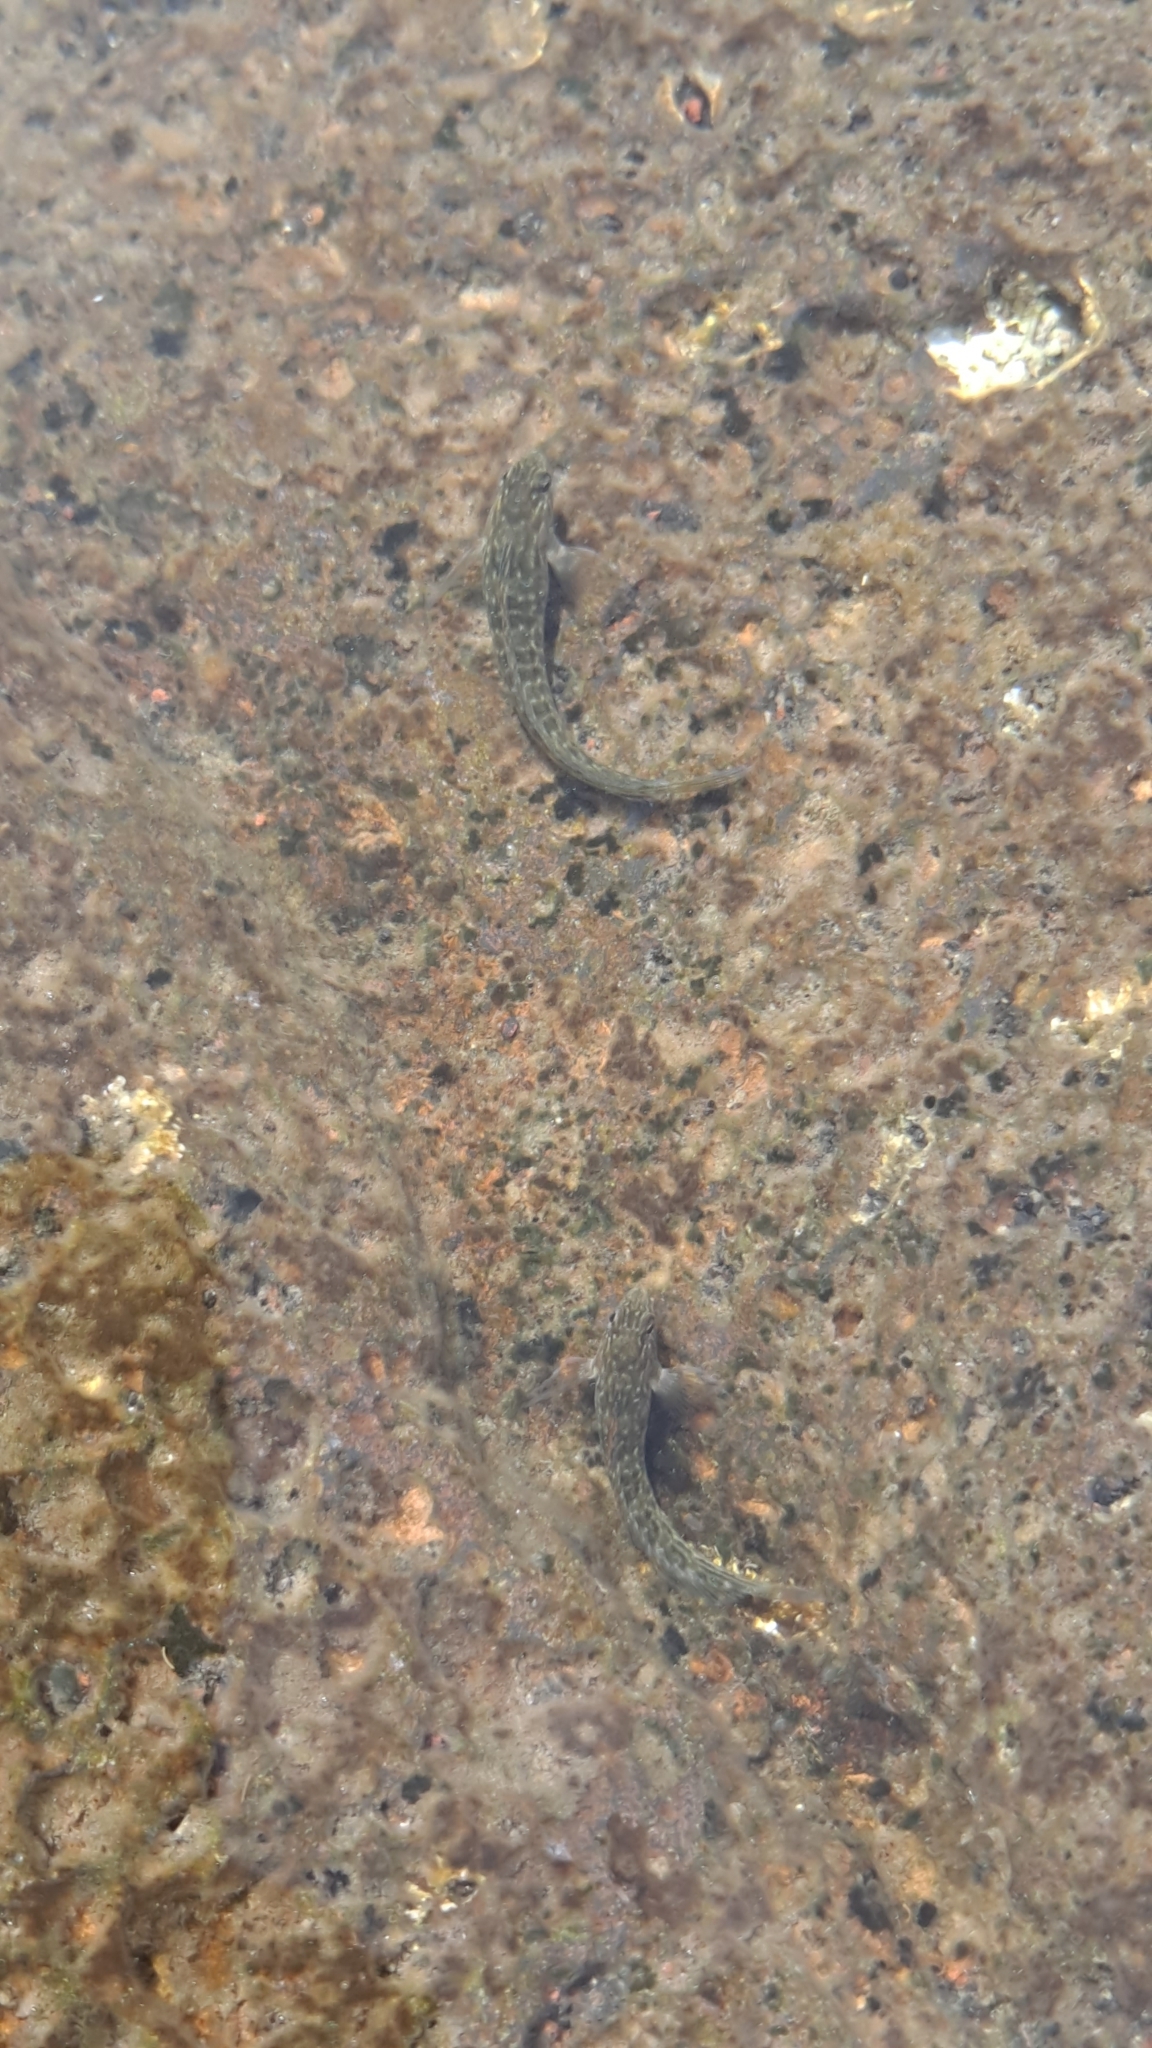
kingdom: Animalia
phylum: Chordata
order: Perciformes
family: Blenniidae
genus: Parablennius
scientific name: Parablennius parvicornis
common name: Rock-pool blenny
